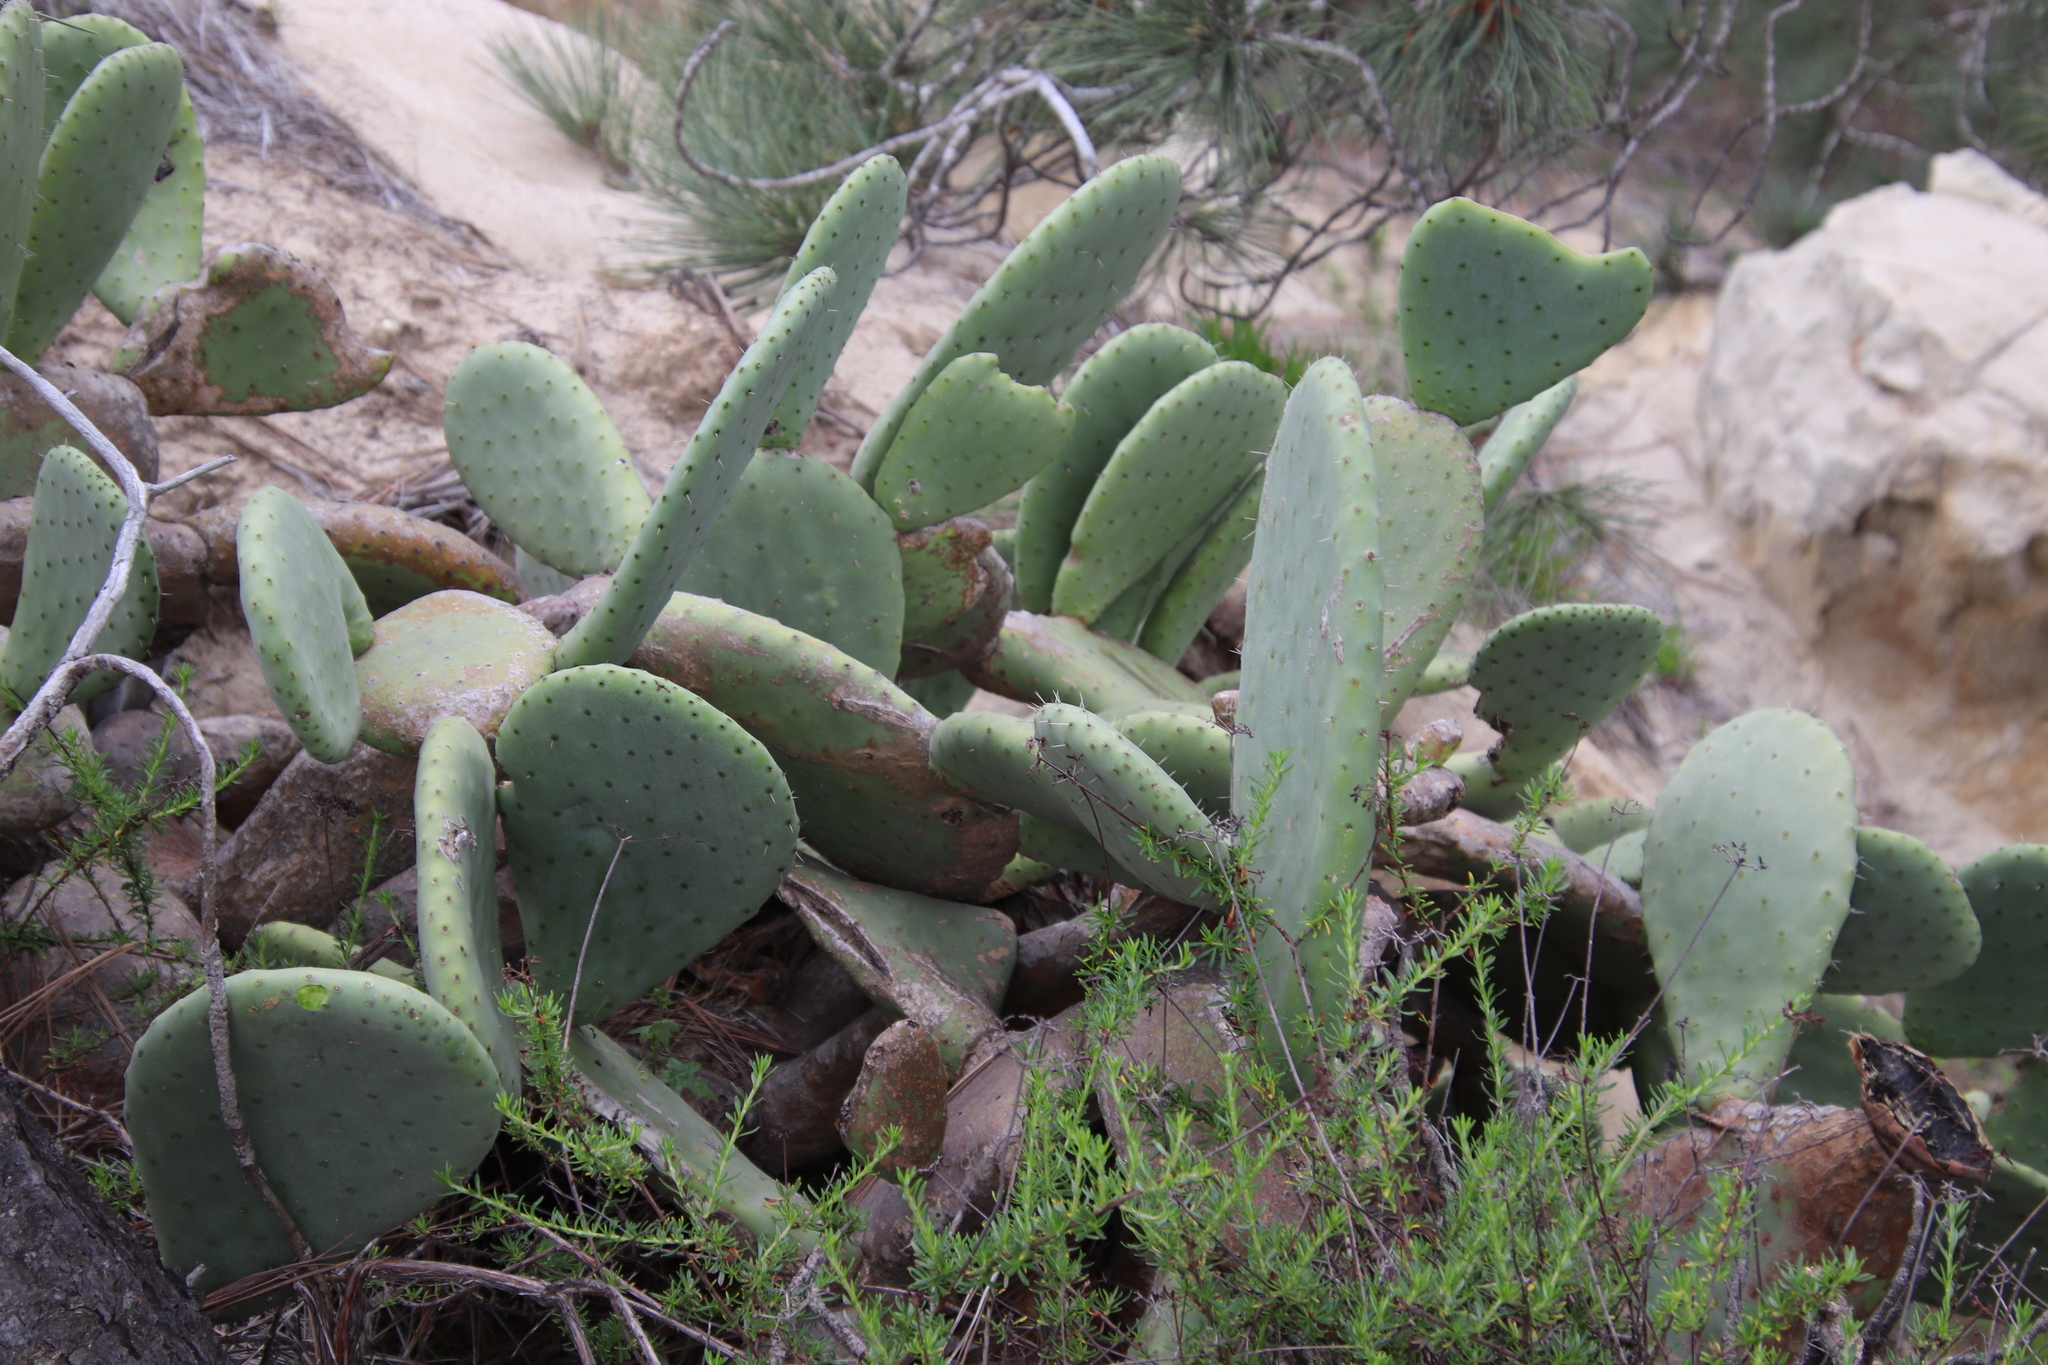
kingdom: Plantae
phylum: Tracheophyta
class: Magnoliopsida
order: Caryophyllales
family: Cactaceae
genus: Opuntia
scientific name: Opuntia ficus-indica
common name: Barbary fig
